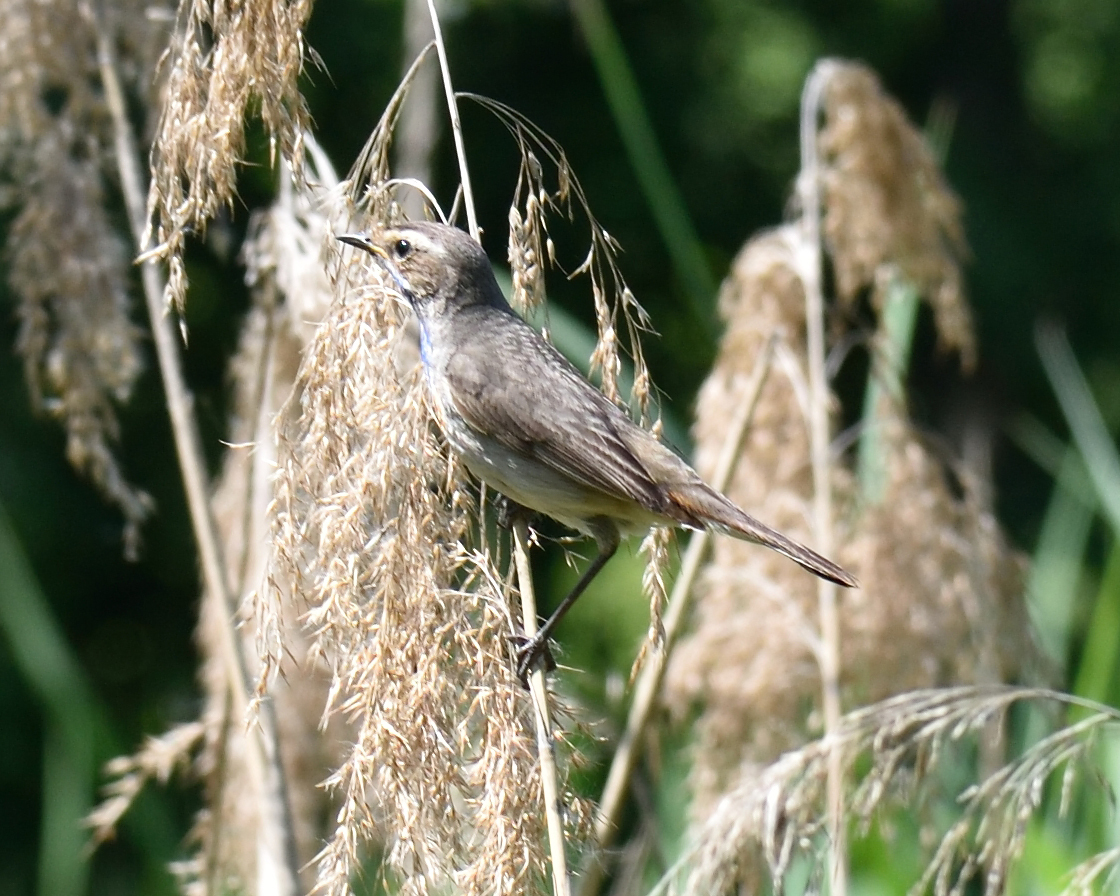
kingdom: Animalia
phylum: Chordata
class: Aves
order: Passeriformes
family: Muscicapidae
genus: Luscinia
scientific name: Luscinia svecica
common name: Bluethroat
